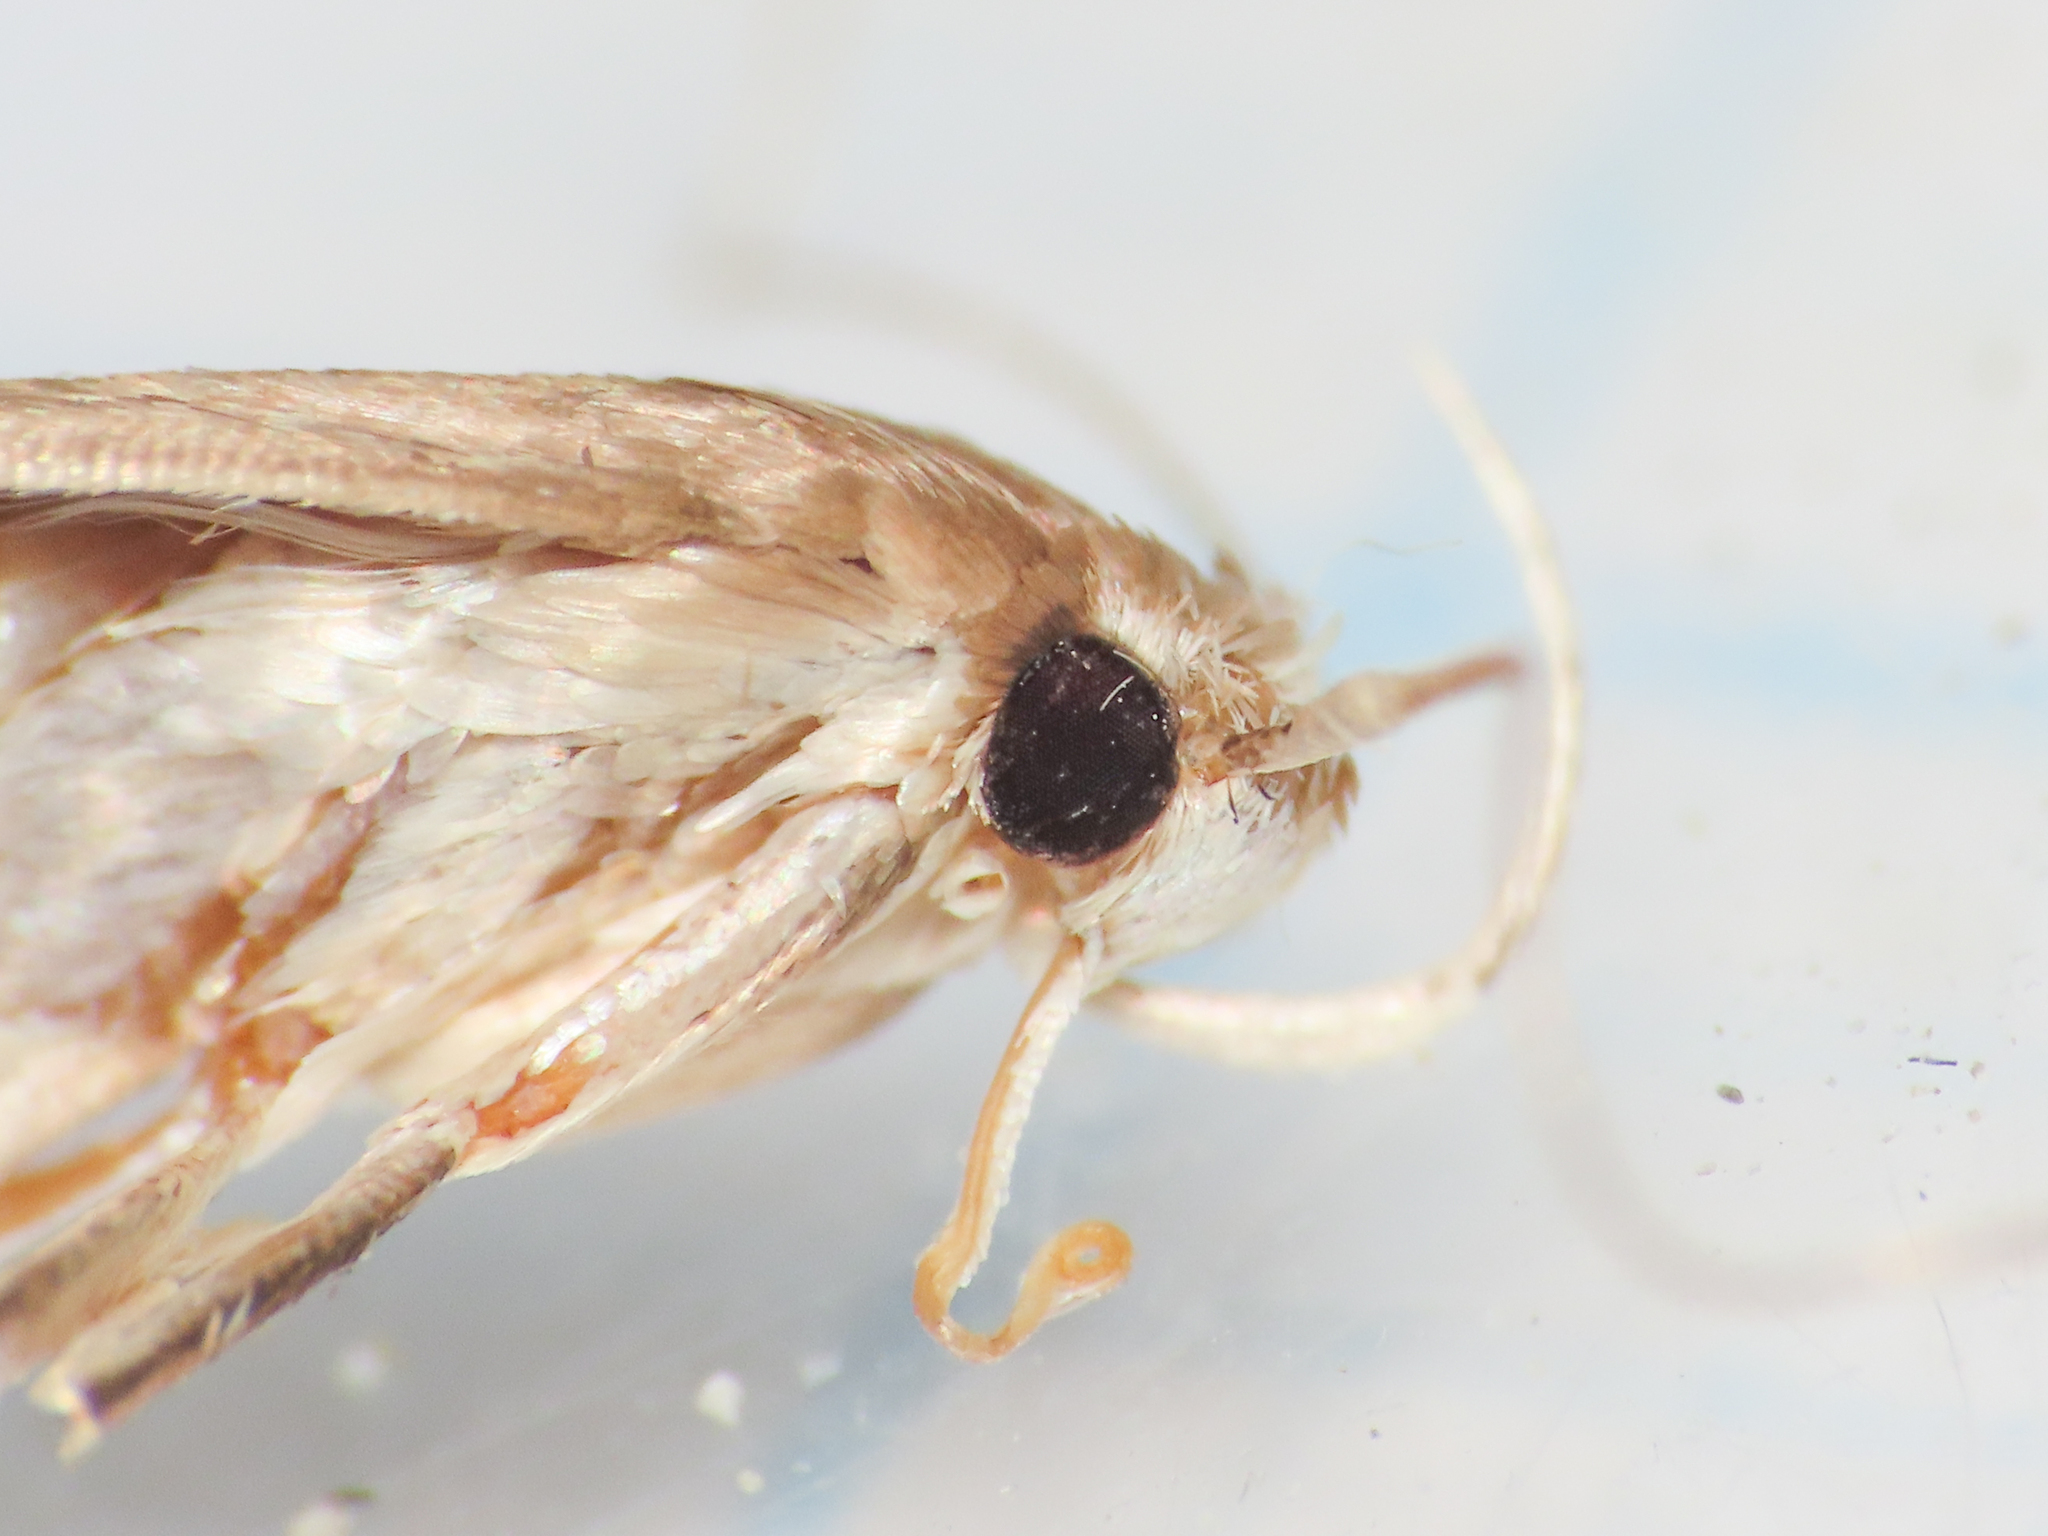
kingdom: Animalia
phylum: Arthropoda
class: Insecta
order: Lepidoptera
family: Cosmopterigidae
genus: Limnaecia
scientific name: Limnaecia phragmitella
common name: Bulrush cosmet
